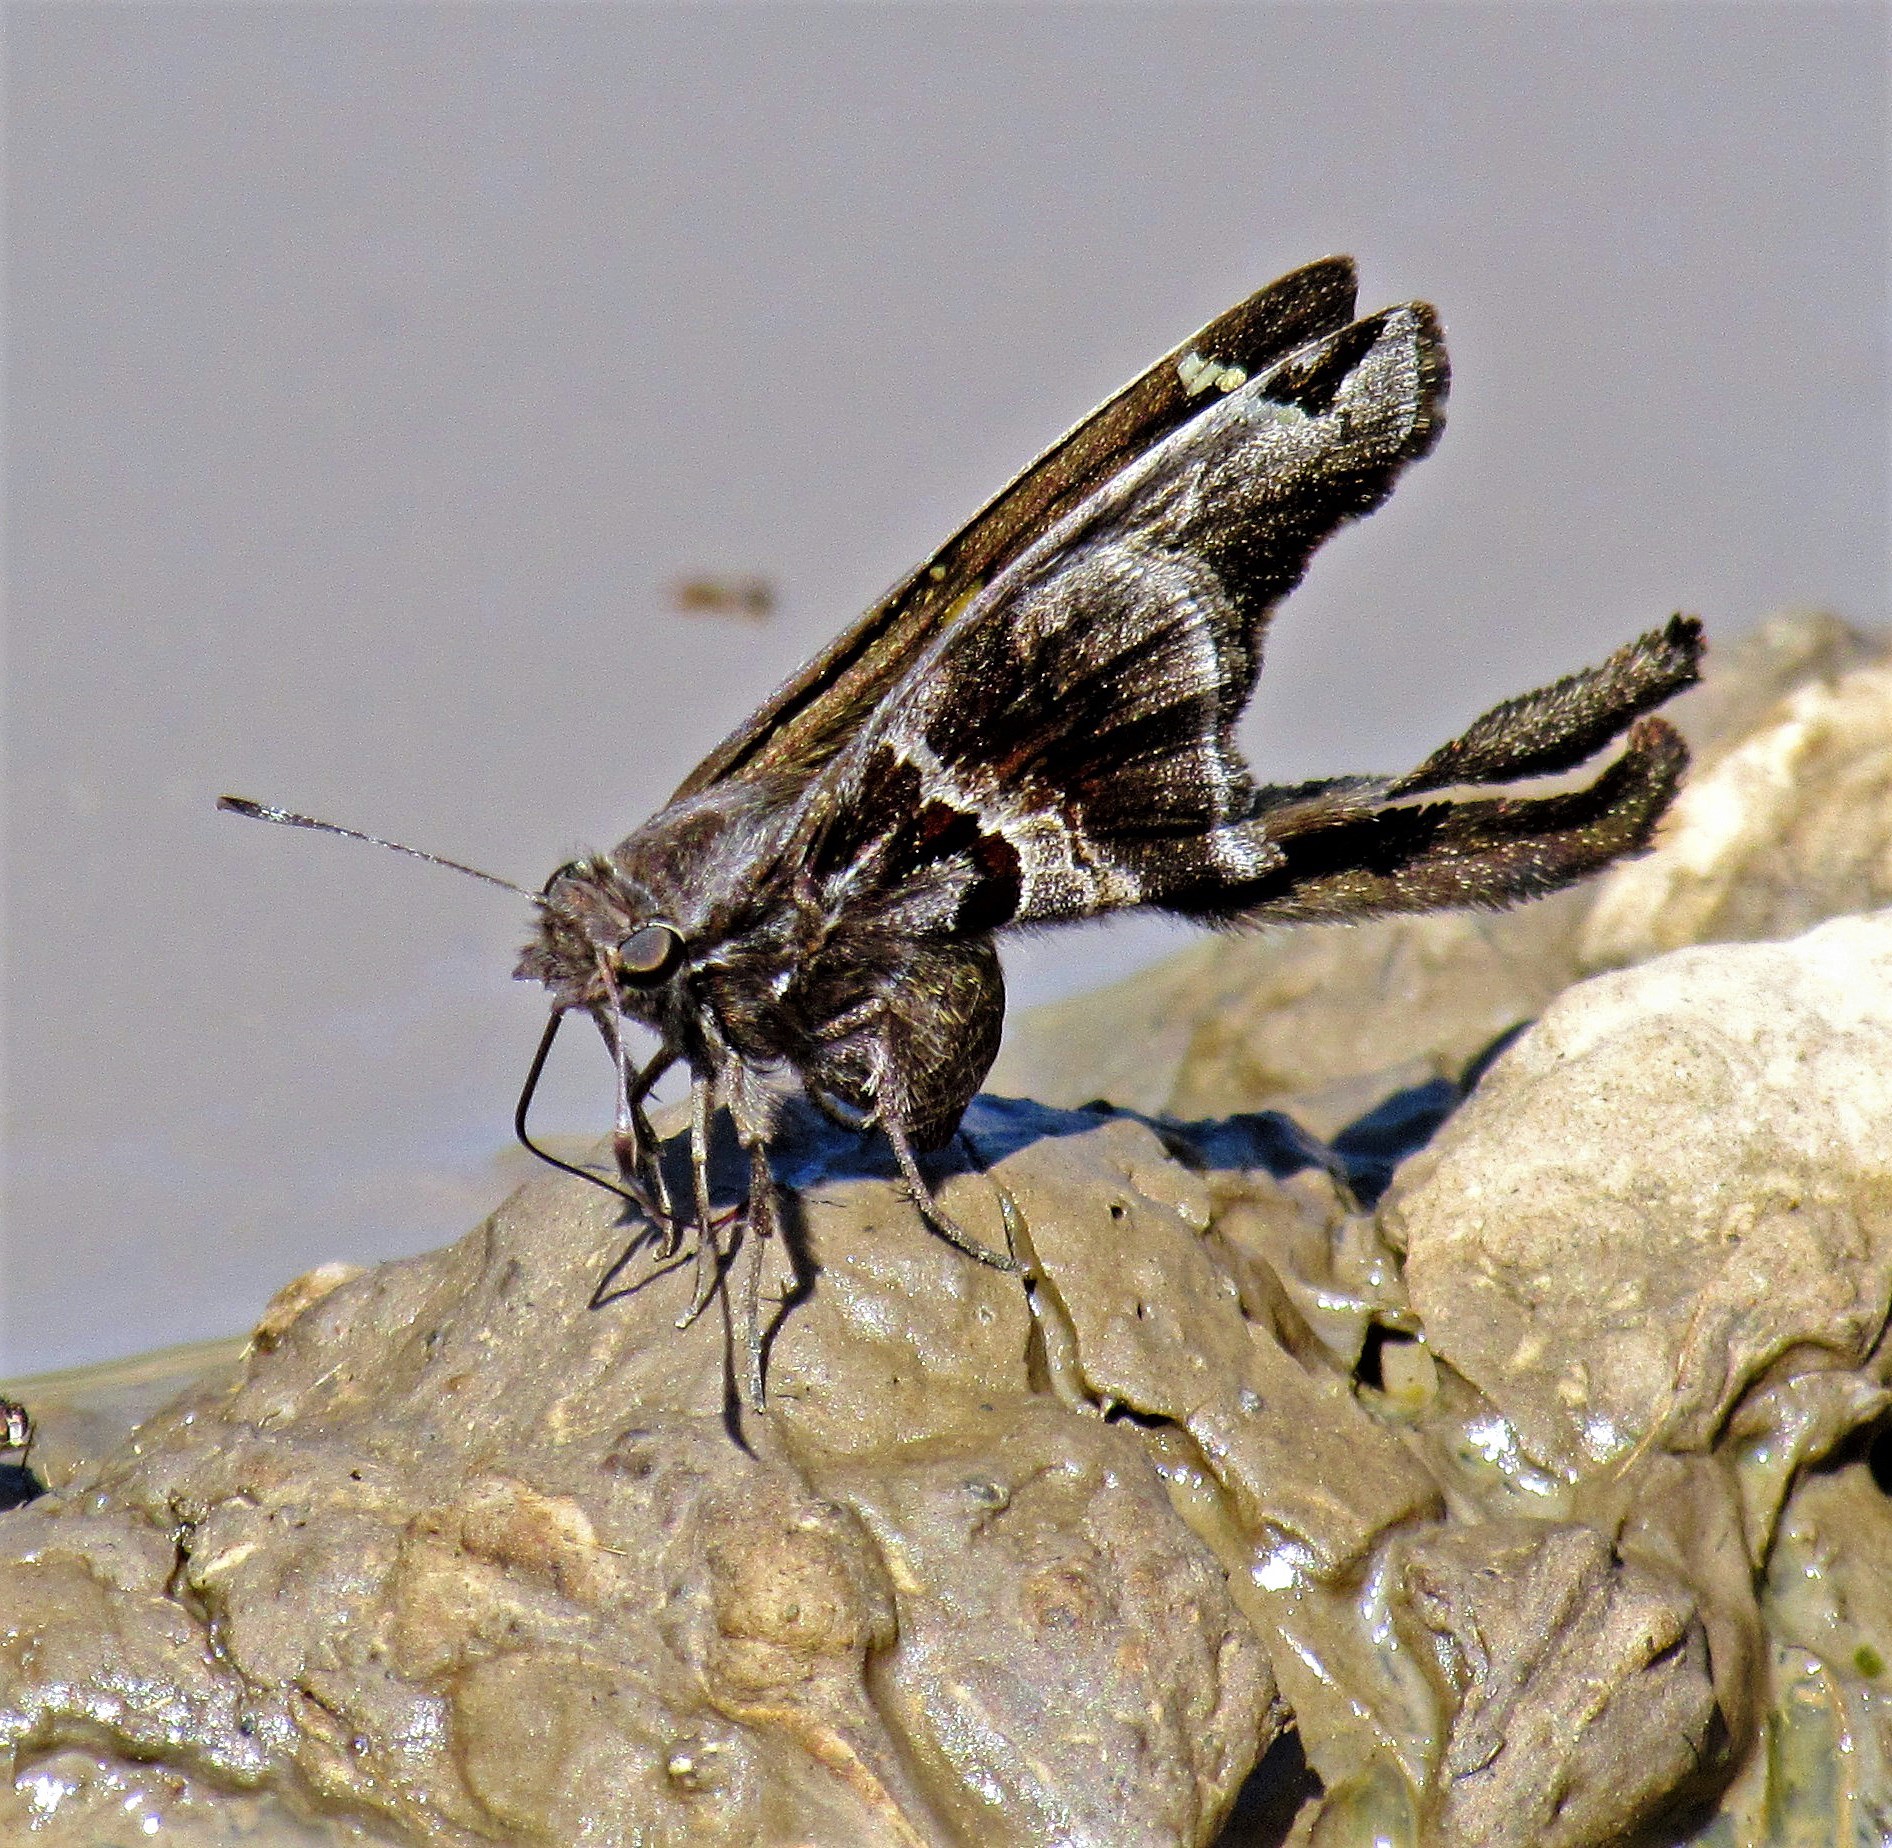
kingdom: Animalia
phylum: Arthropoda
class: Insecta
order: Lepidoptera
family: Hesperiidae
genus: Chioides
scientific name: Chioides catillus
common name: Silverbanded skipper
